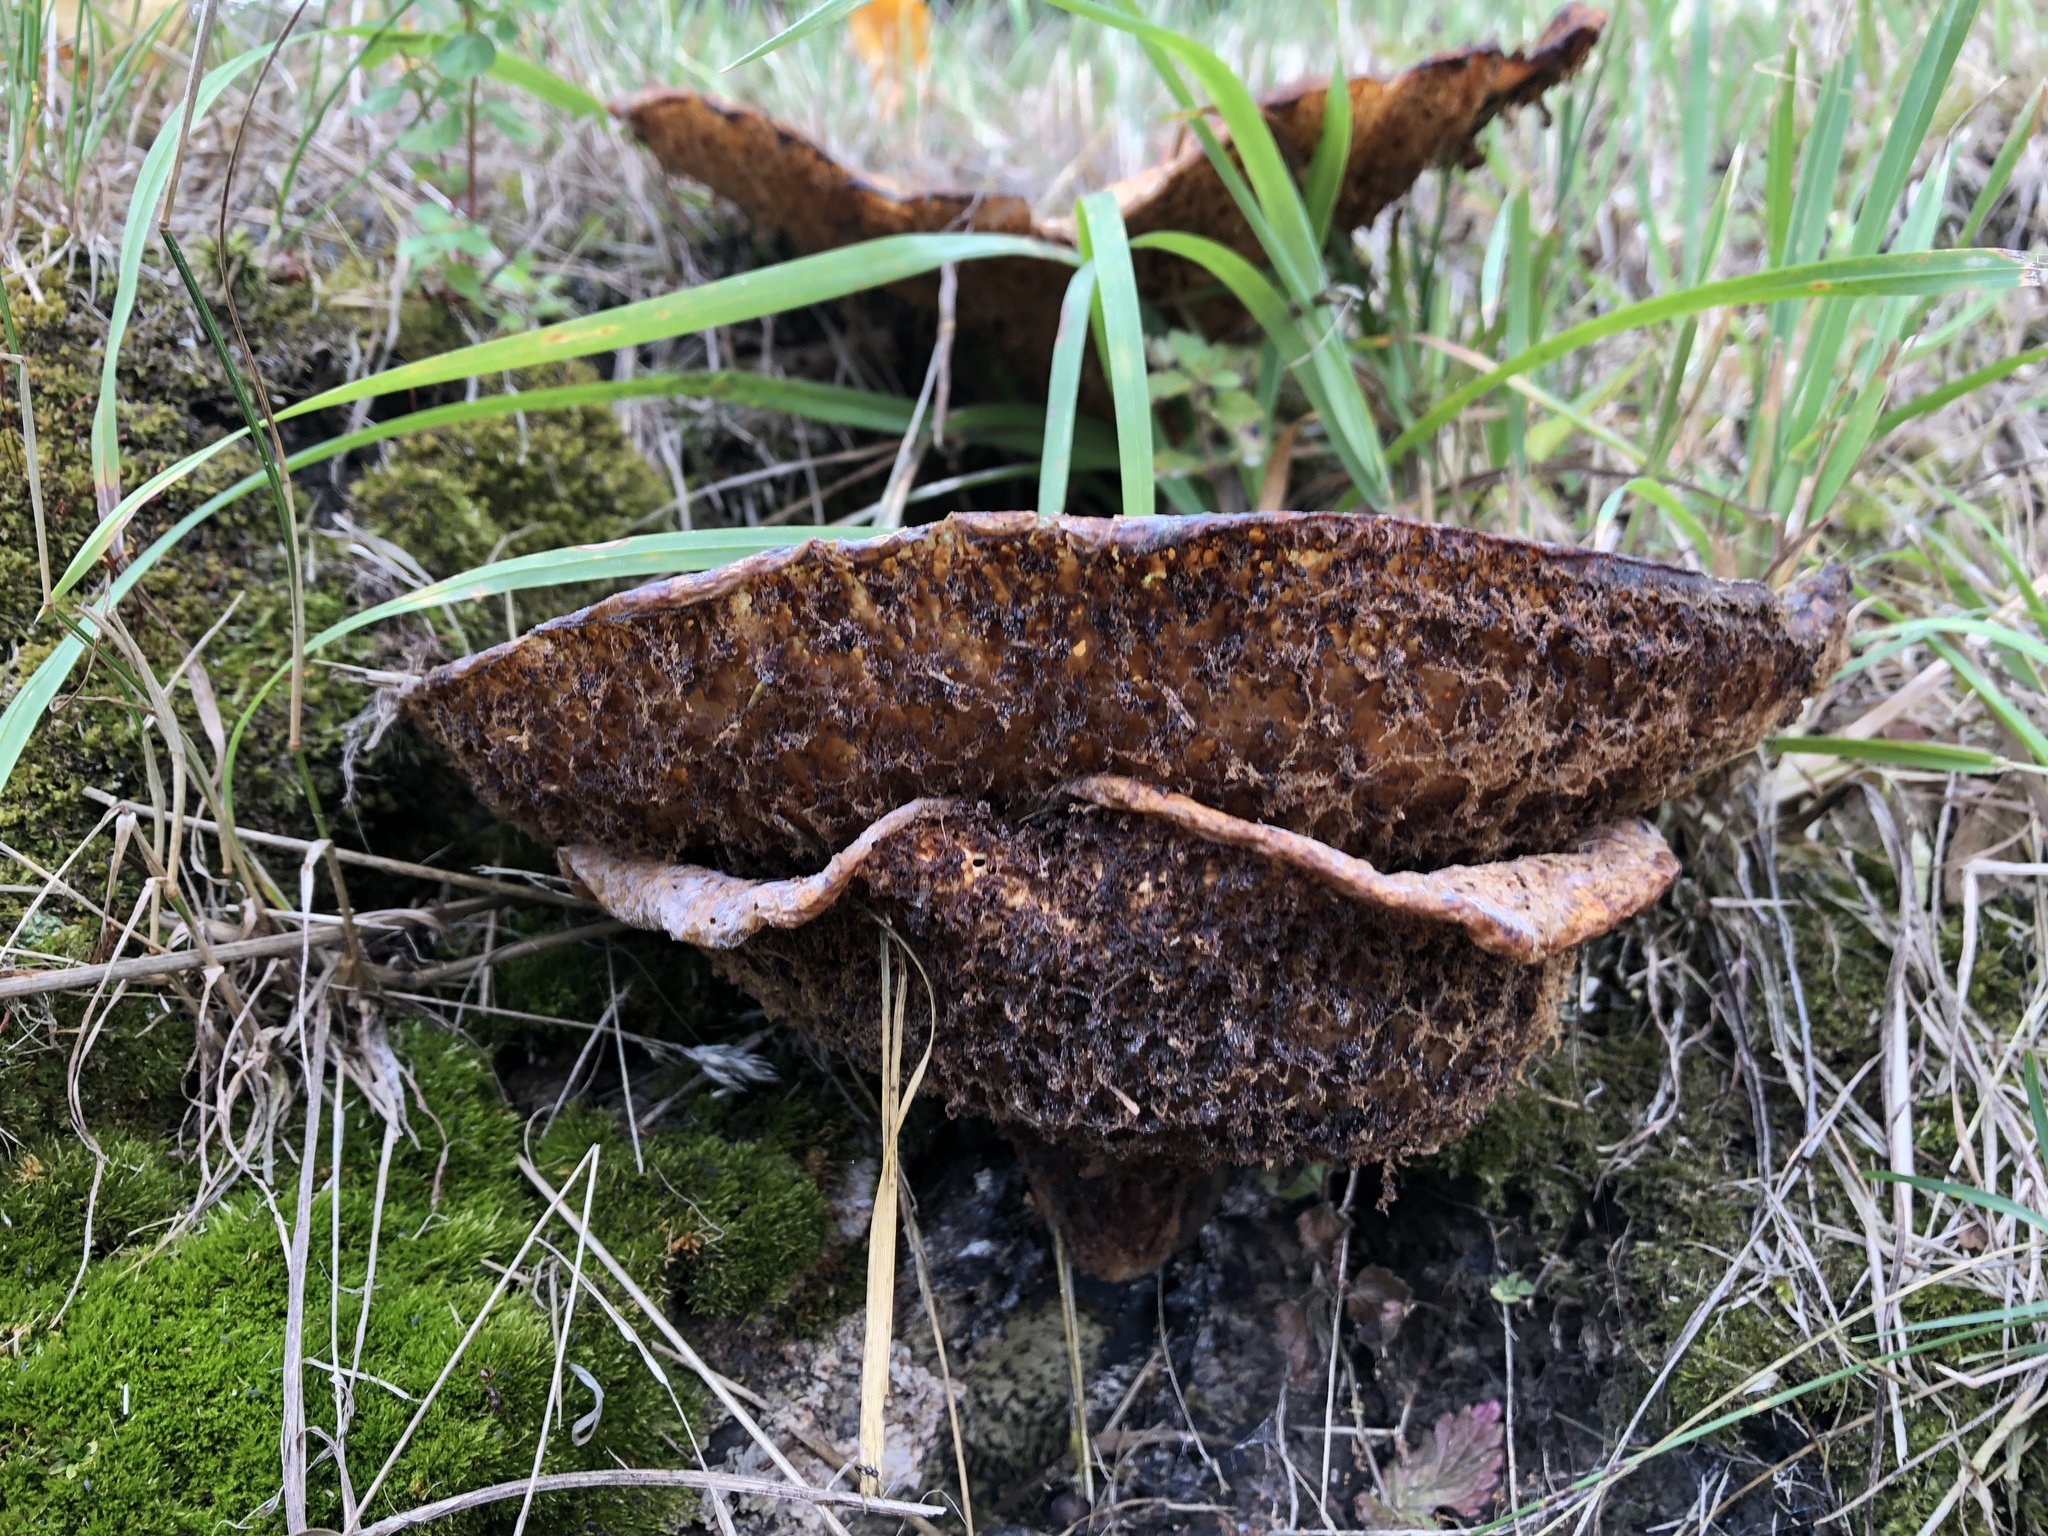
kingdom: Fungi
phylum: Basidiomycota
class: Agaricomycetes
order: Polyporales
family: Polyporaceae
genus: Cerioporus
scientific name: Cerioporus squamosus
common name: Dryad's saddle
